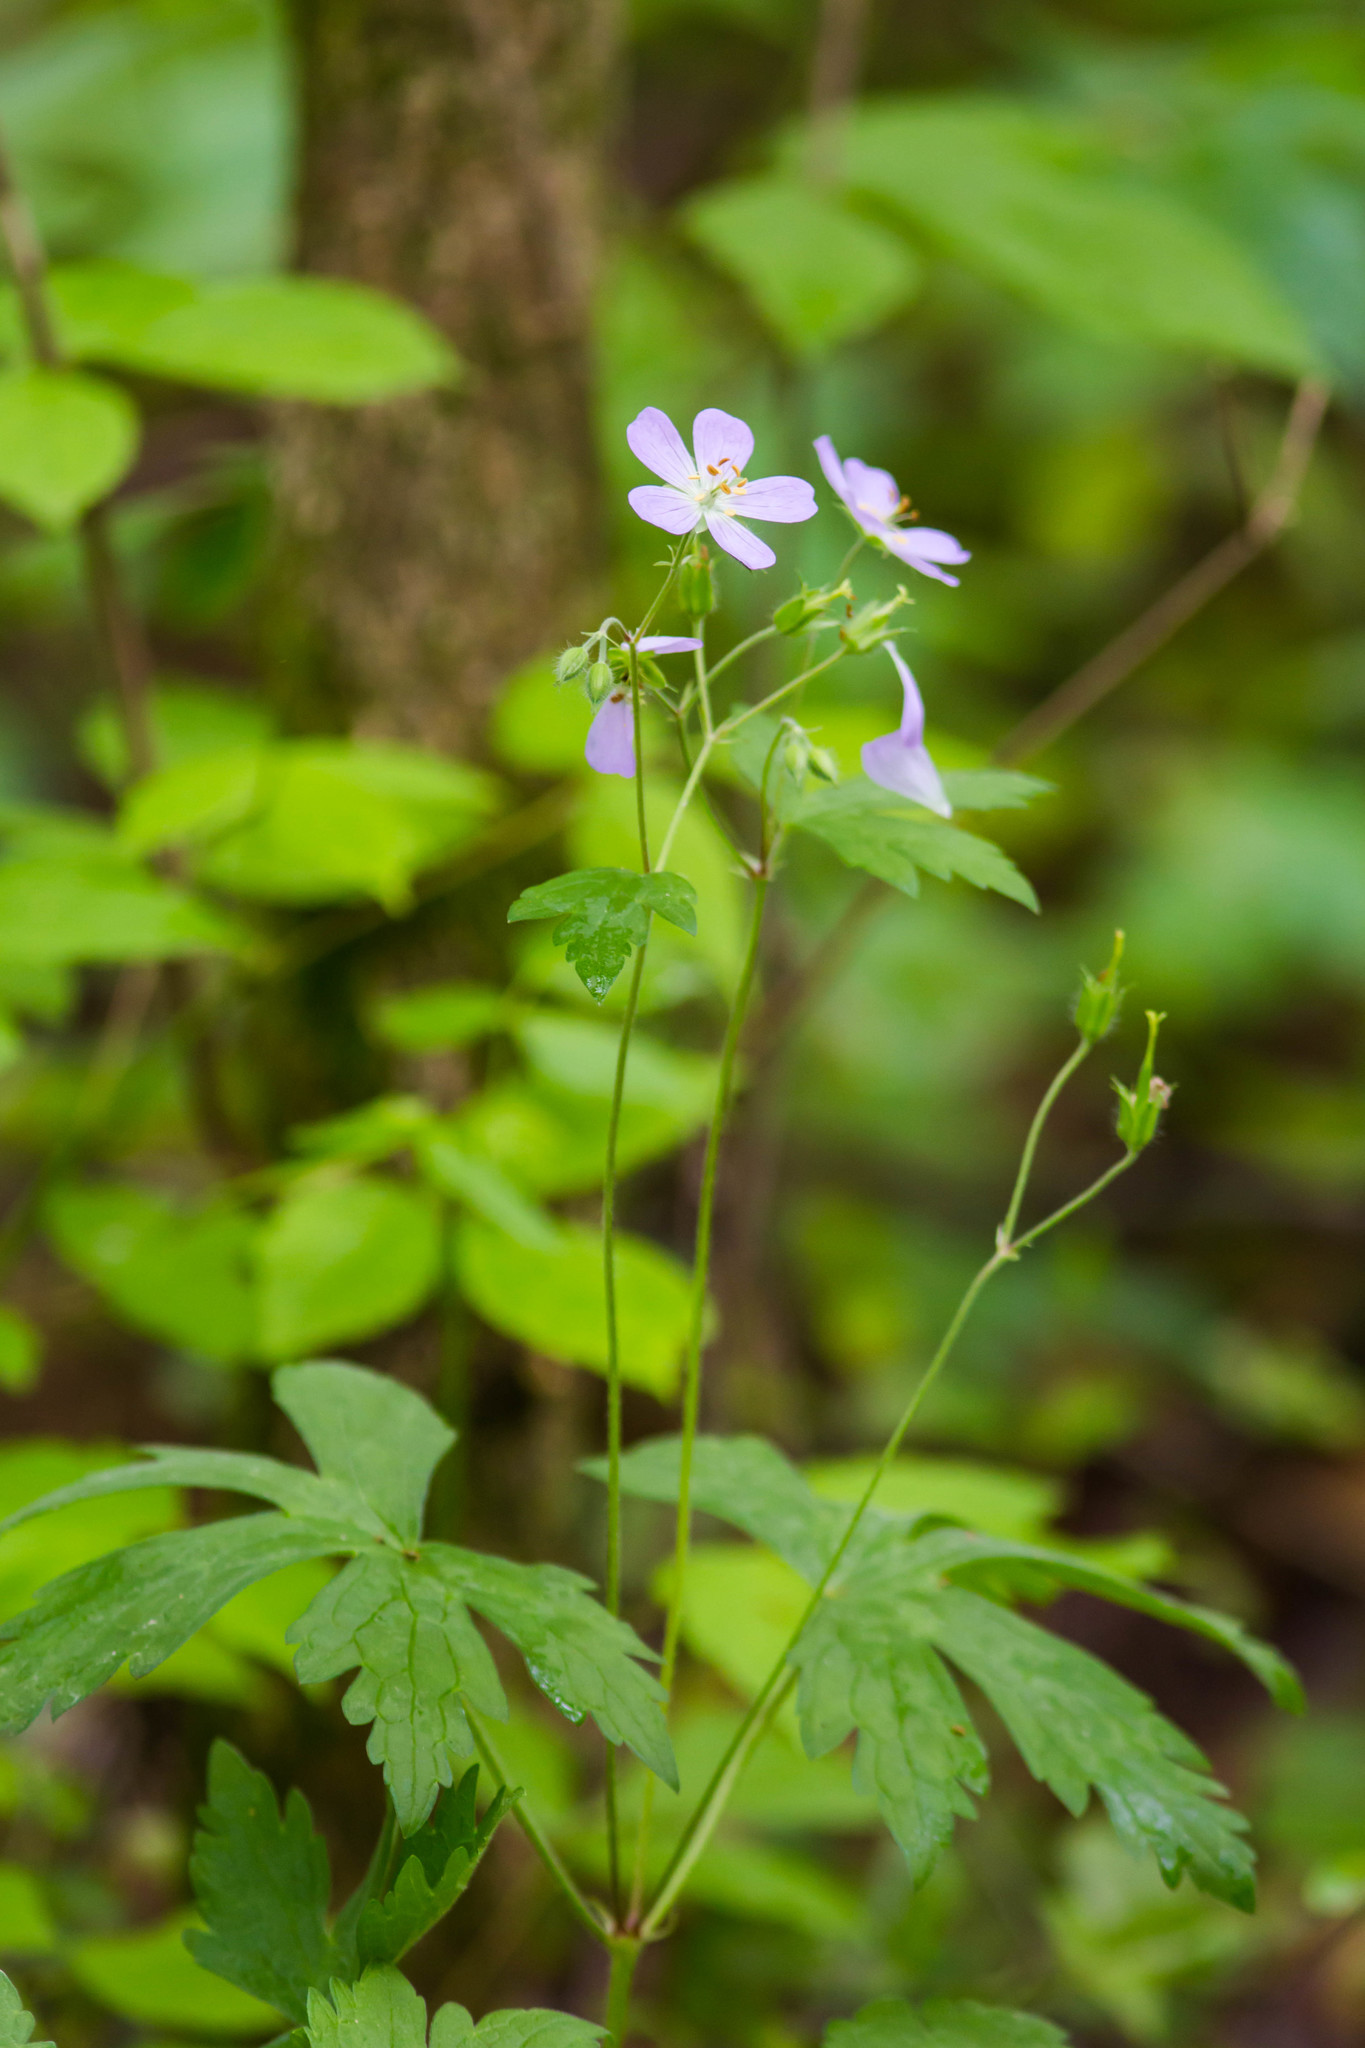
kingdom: Plantae
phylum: Tracheophyta
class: Magnoliopsida
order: Geraniales
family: Geraniaceae
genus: Geranium
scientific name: Geranium maculatum
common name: Spotted geranium
